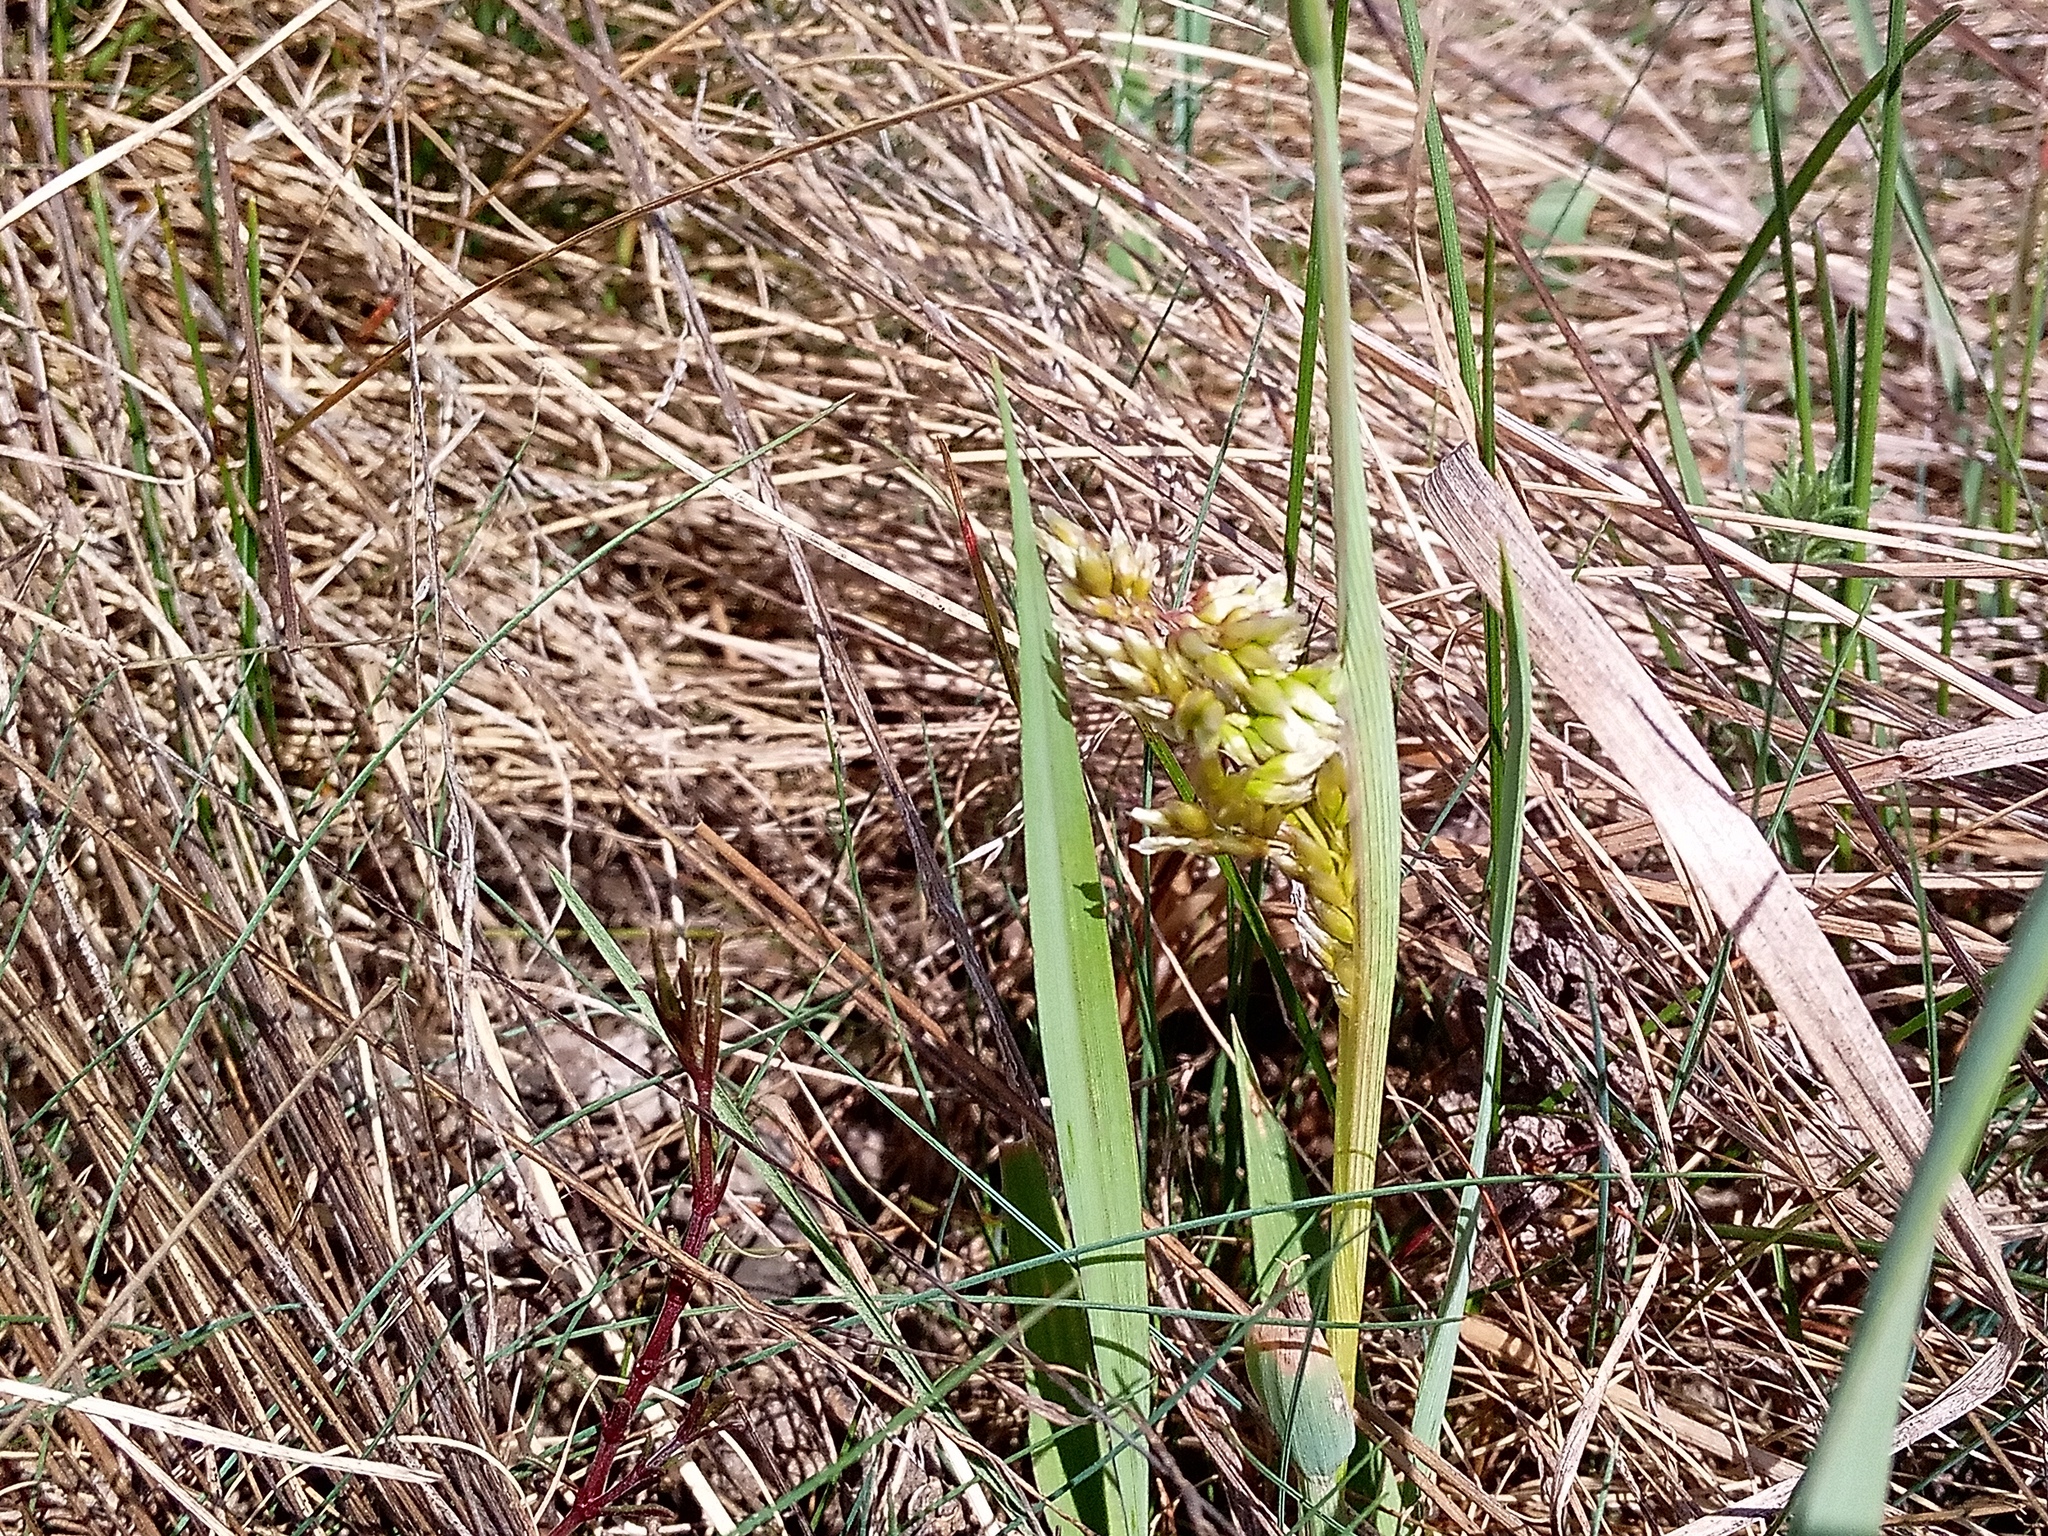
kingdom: Plantae
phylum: Tracheophyta
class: Liliopsida
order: Poales
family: Poaceae
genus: Anthoxanthum
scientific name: Anthoxanthum repens
